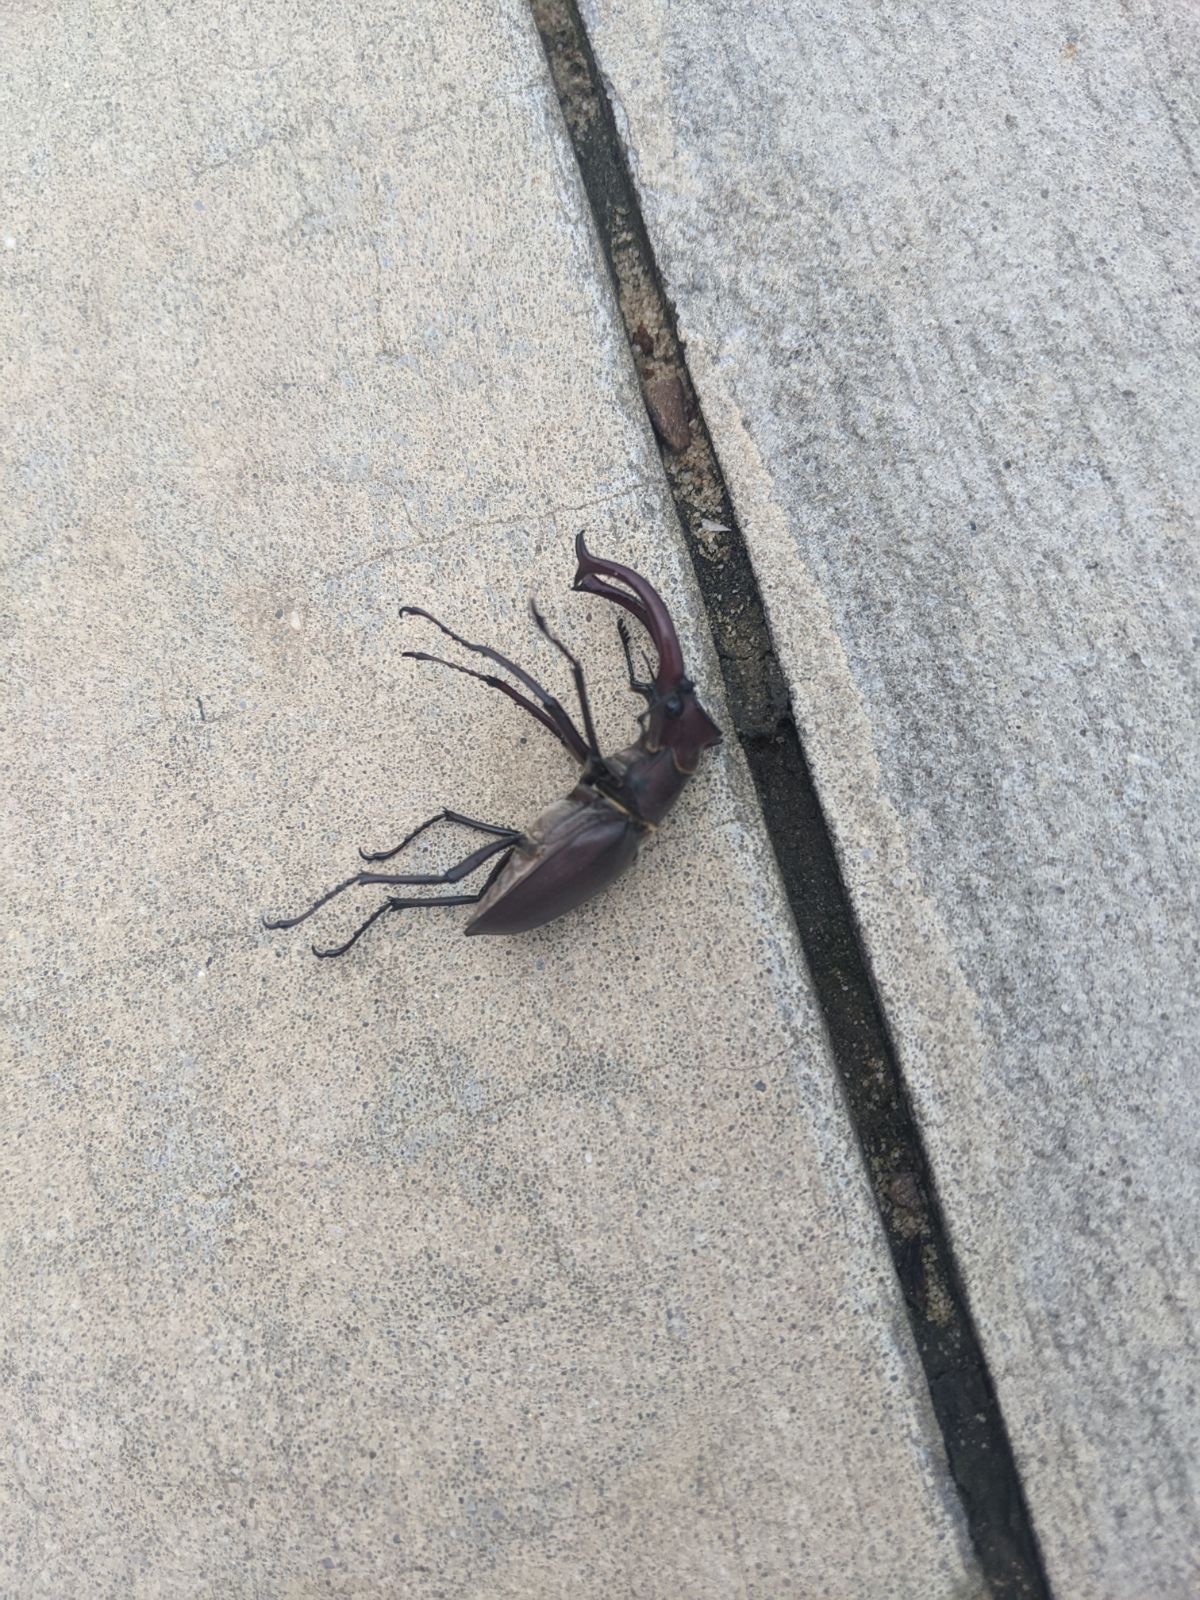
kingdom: Animalia
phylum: Arthropoda
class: Insecta
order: Coleoptera
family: Lucanidae
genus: Lucanus
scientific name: Lucanus elaphus
